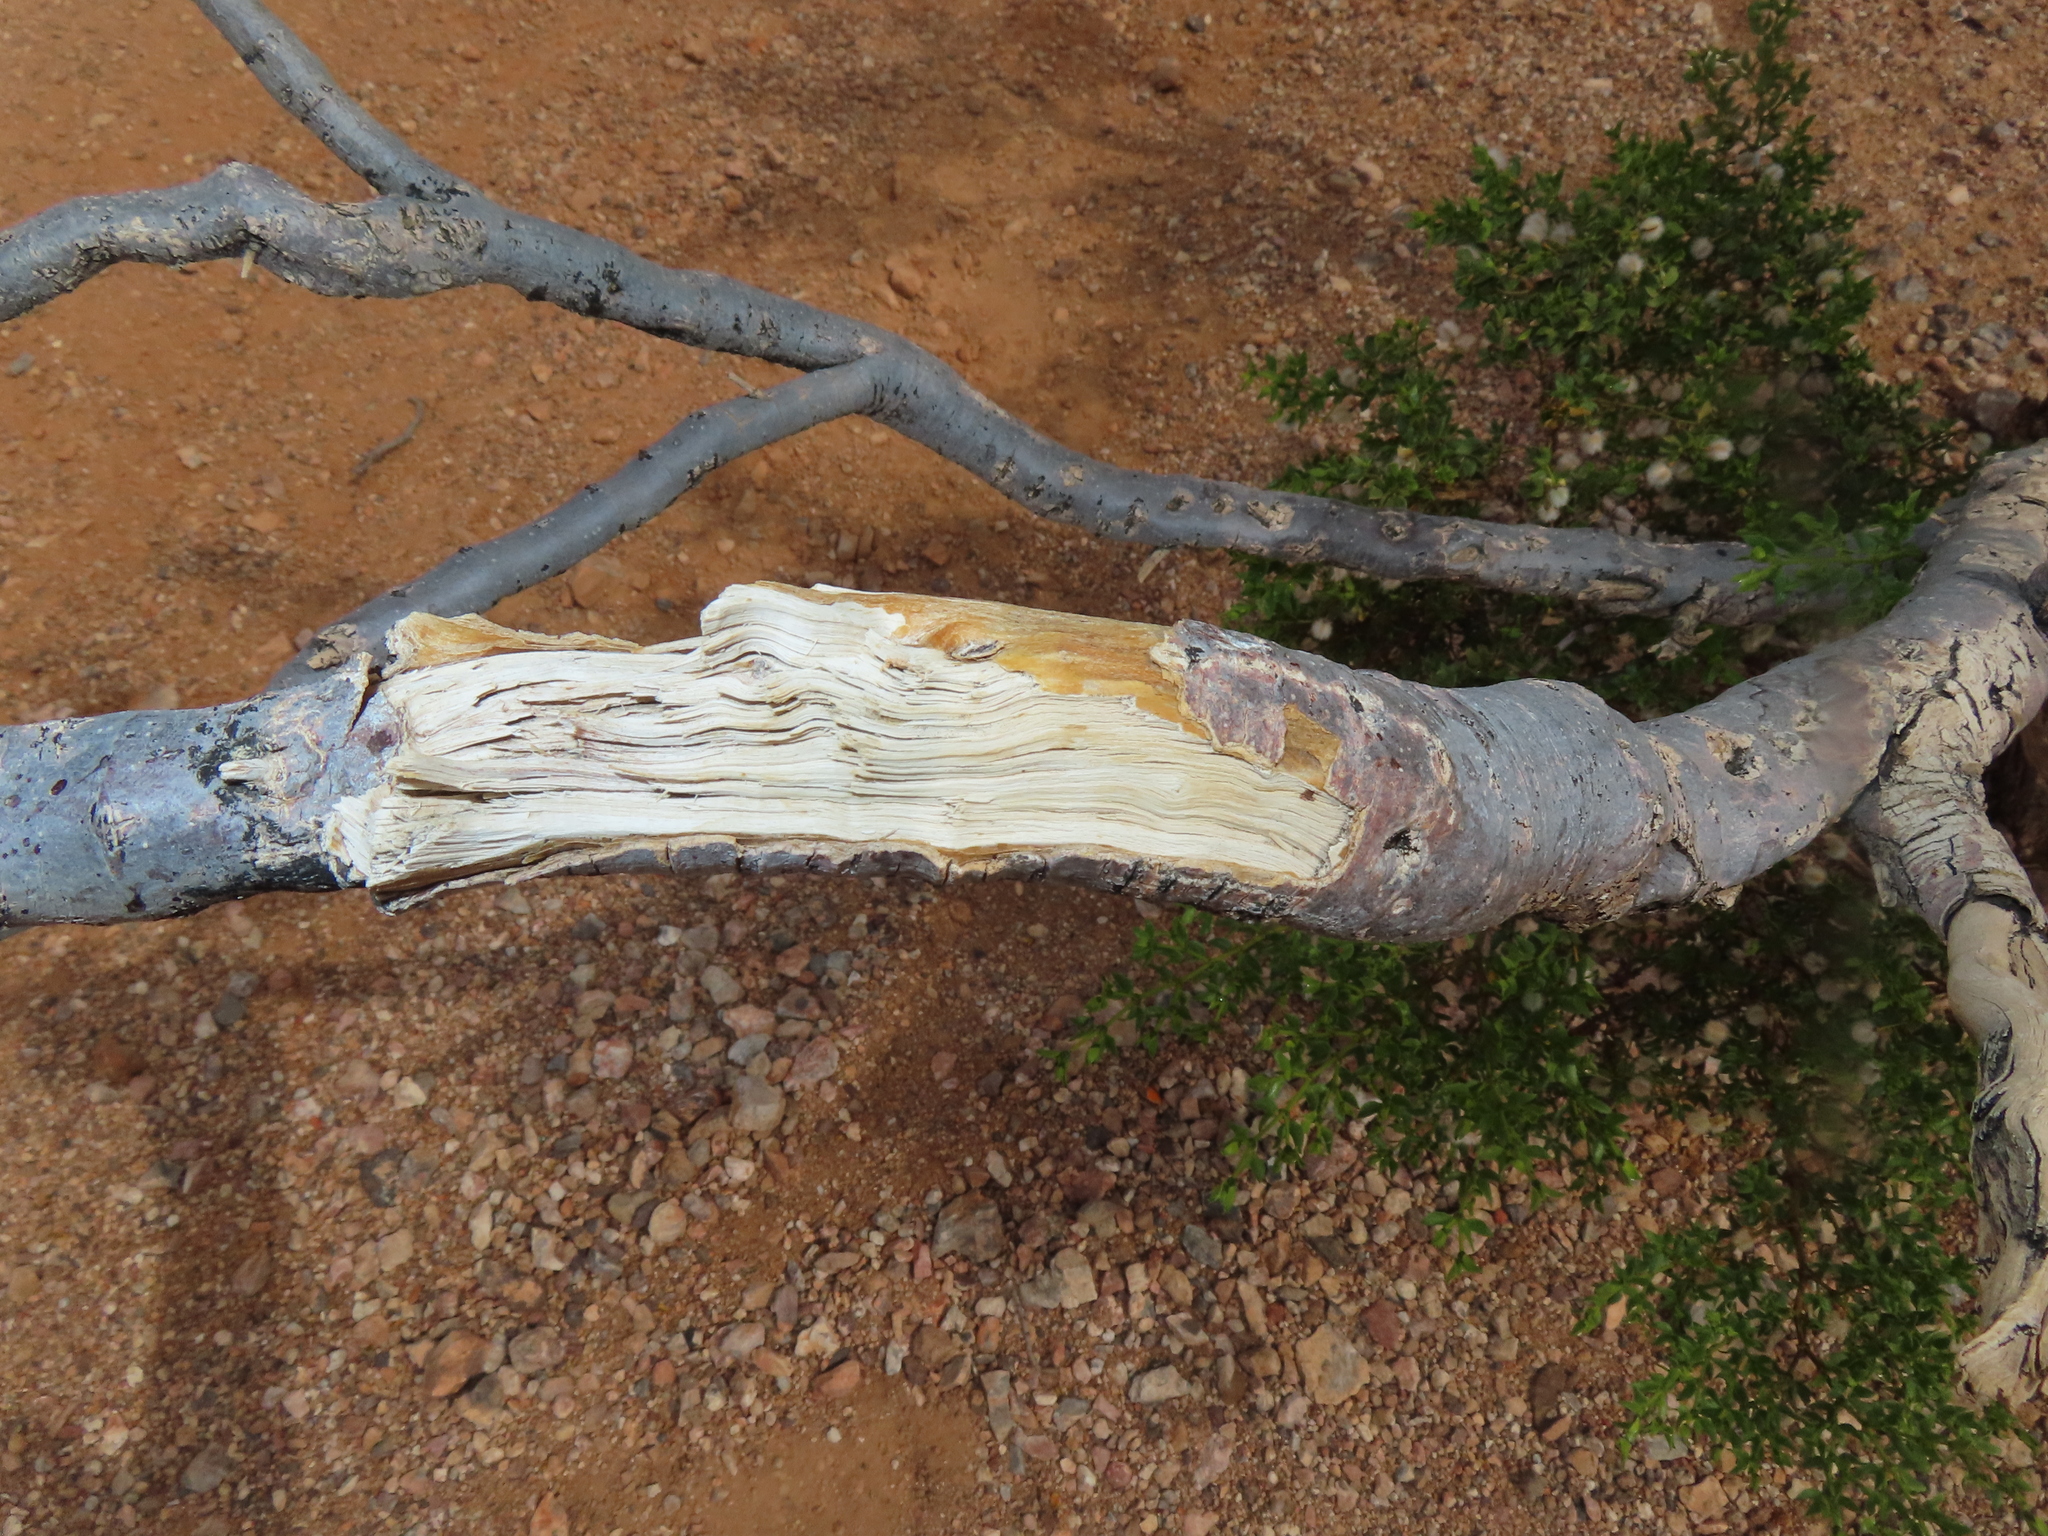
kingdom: Plantae
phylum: Tracheophyta
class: Magnoliopsida
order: Zygophyllales
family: Zygophyllaceae
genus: Larrea
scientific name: Larrea tridentata
